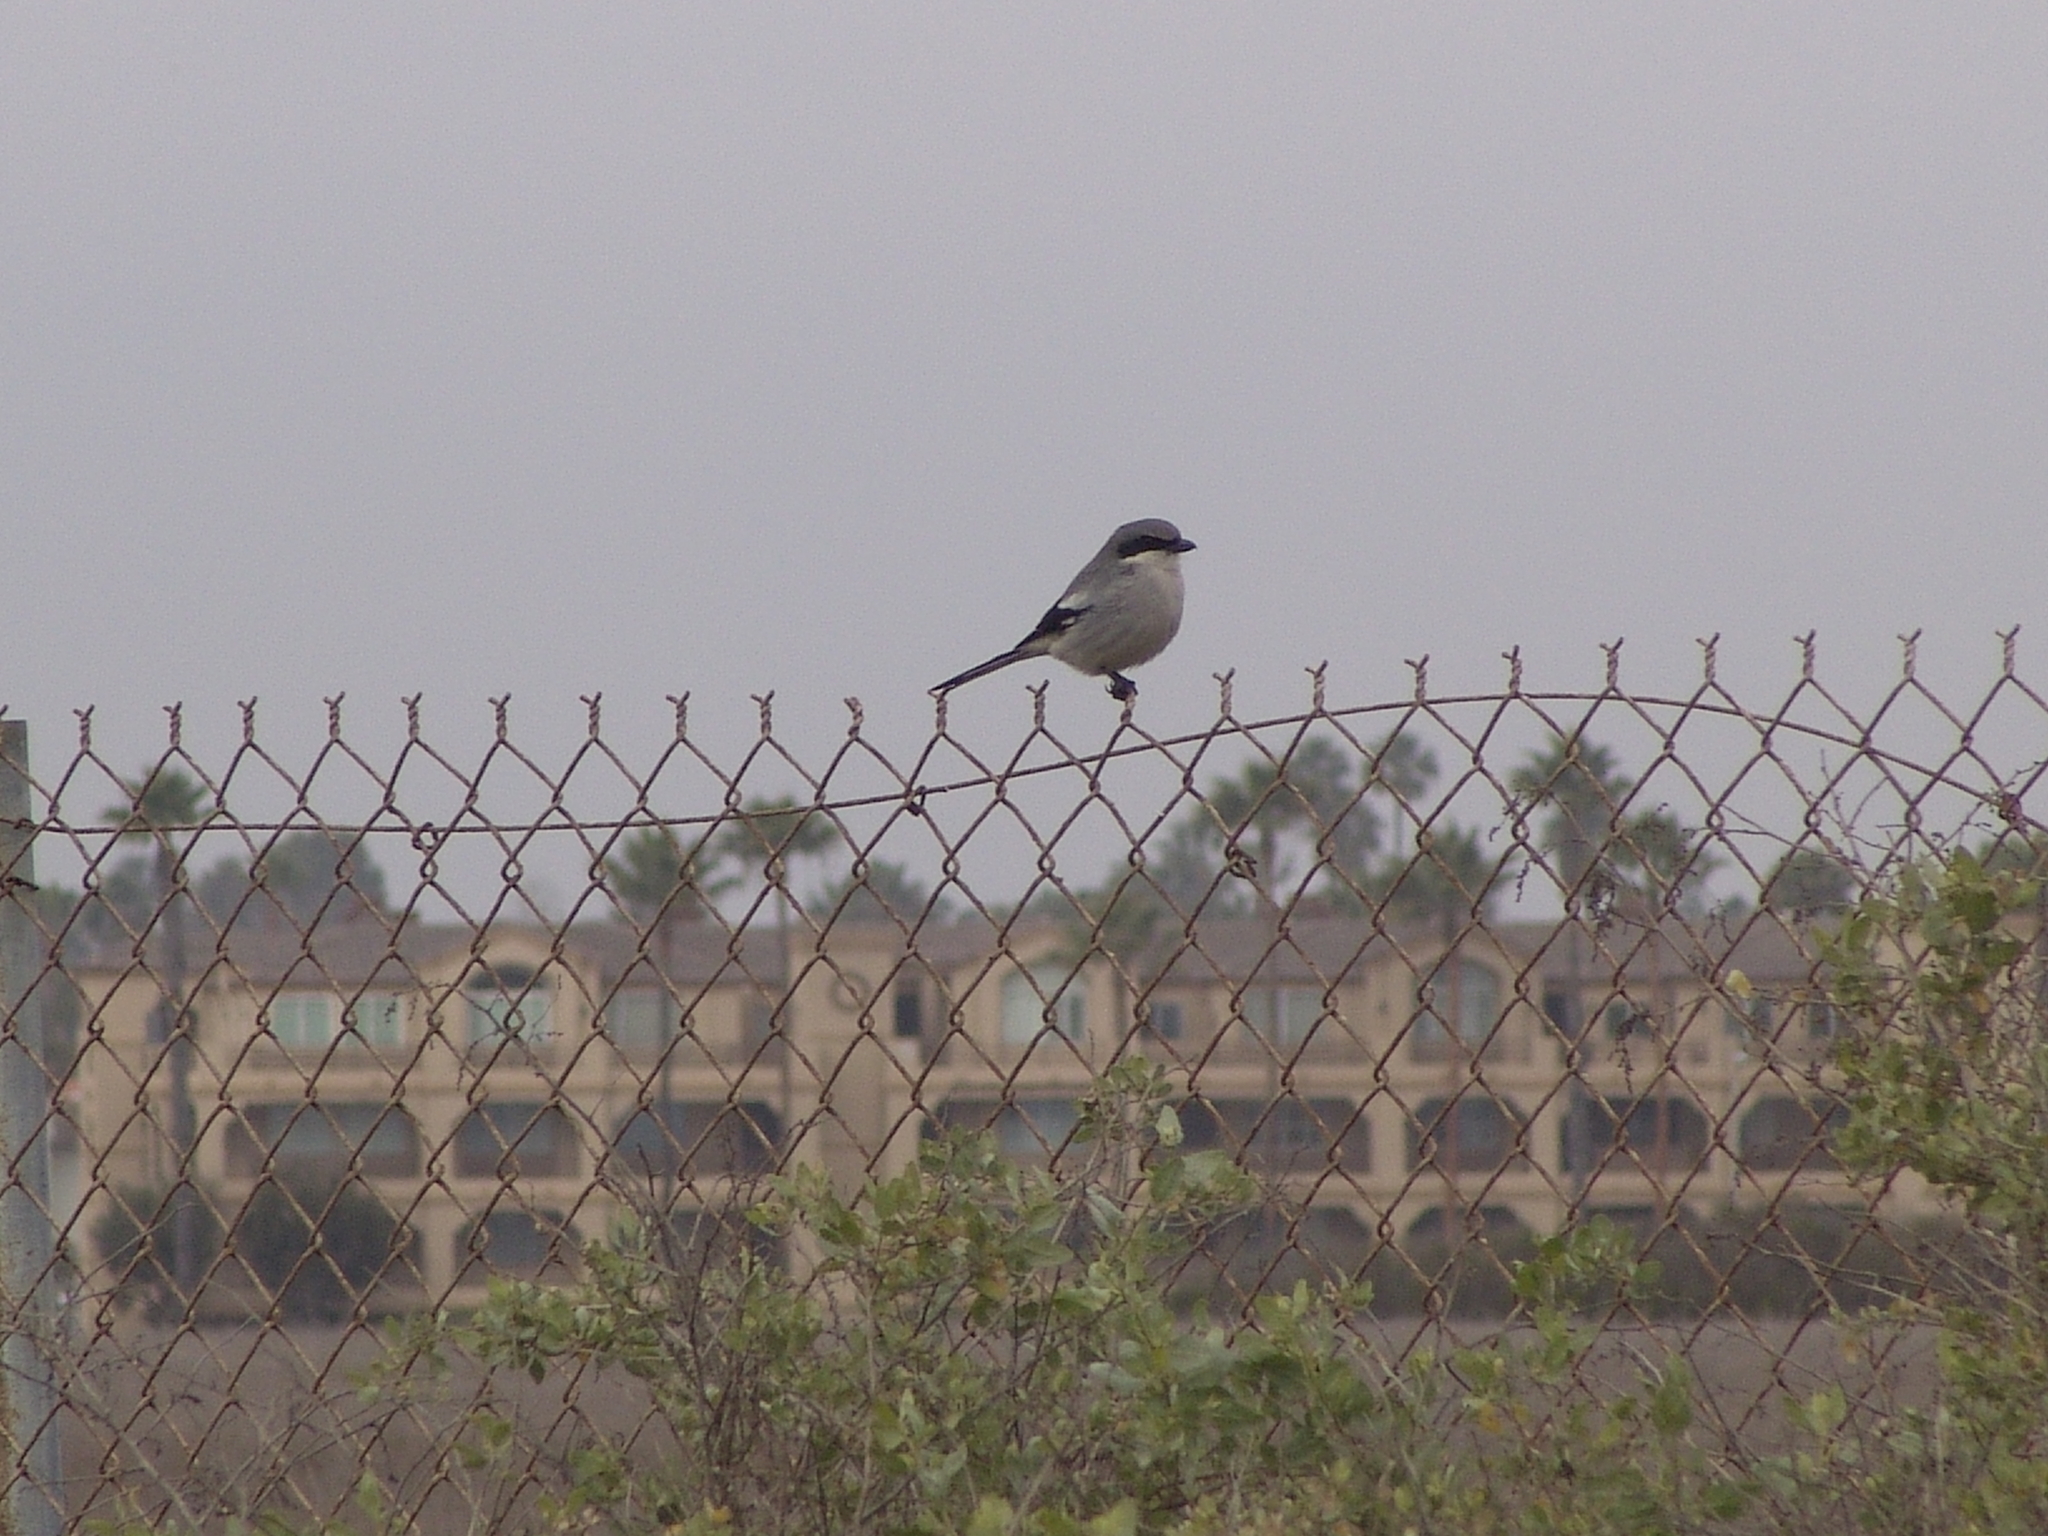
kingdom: Animalia
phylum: Chordata
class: Aves
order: Passeriformes
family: Laniidae
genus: Lanius
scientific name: Lanius ludovicianus
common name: Loggerhead shrike
